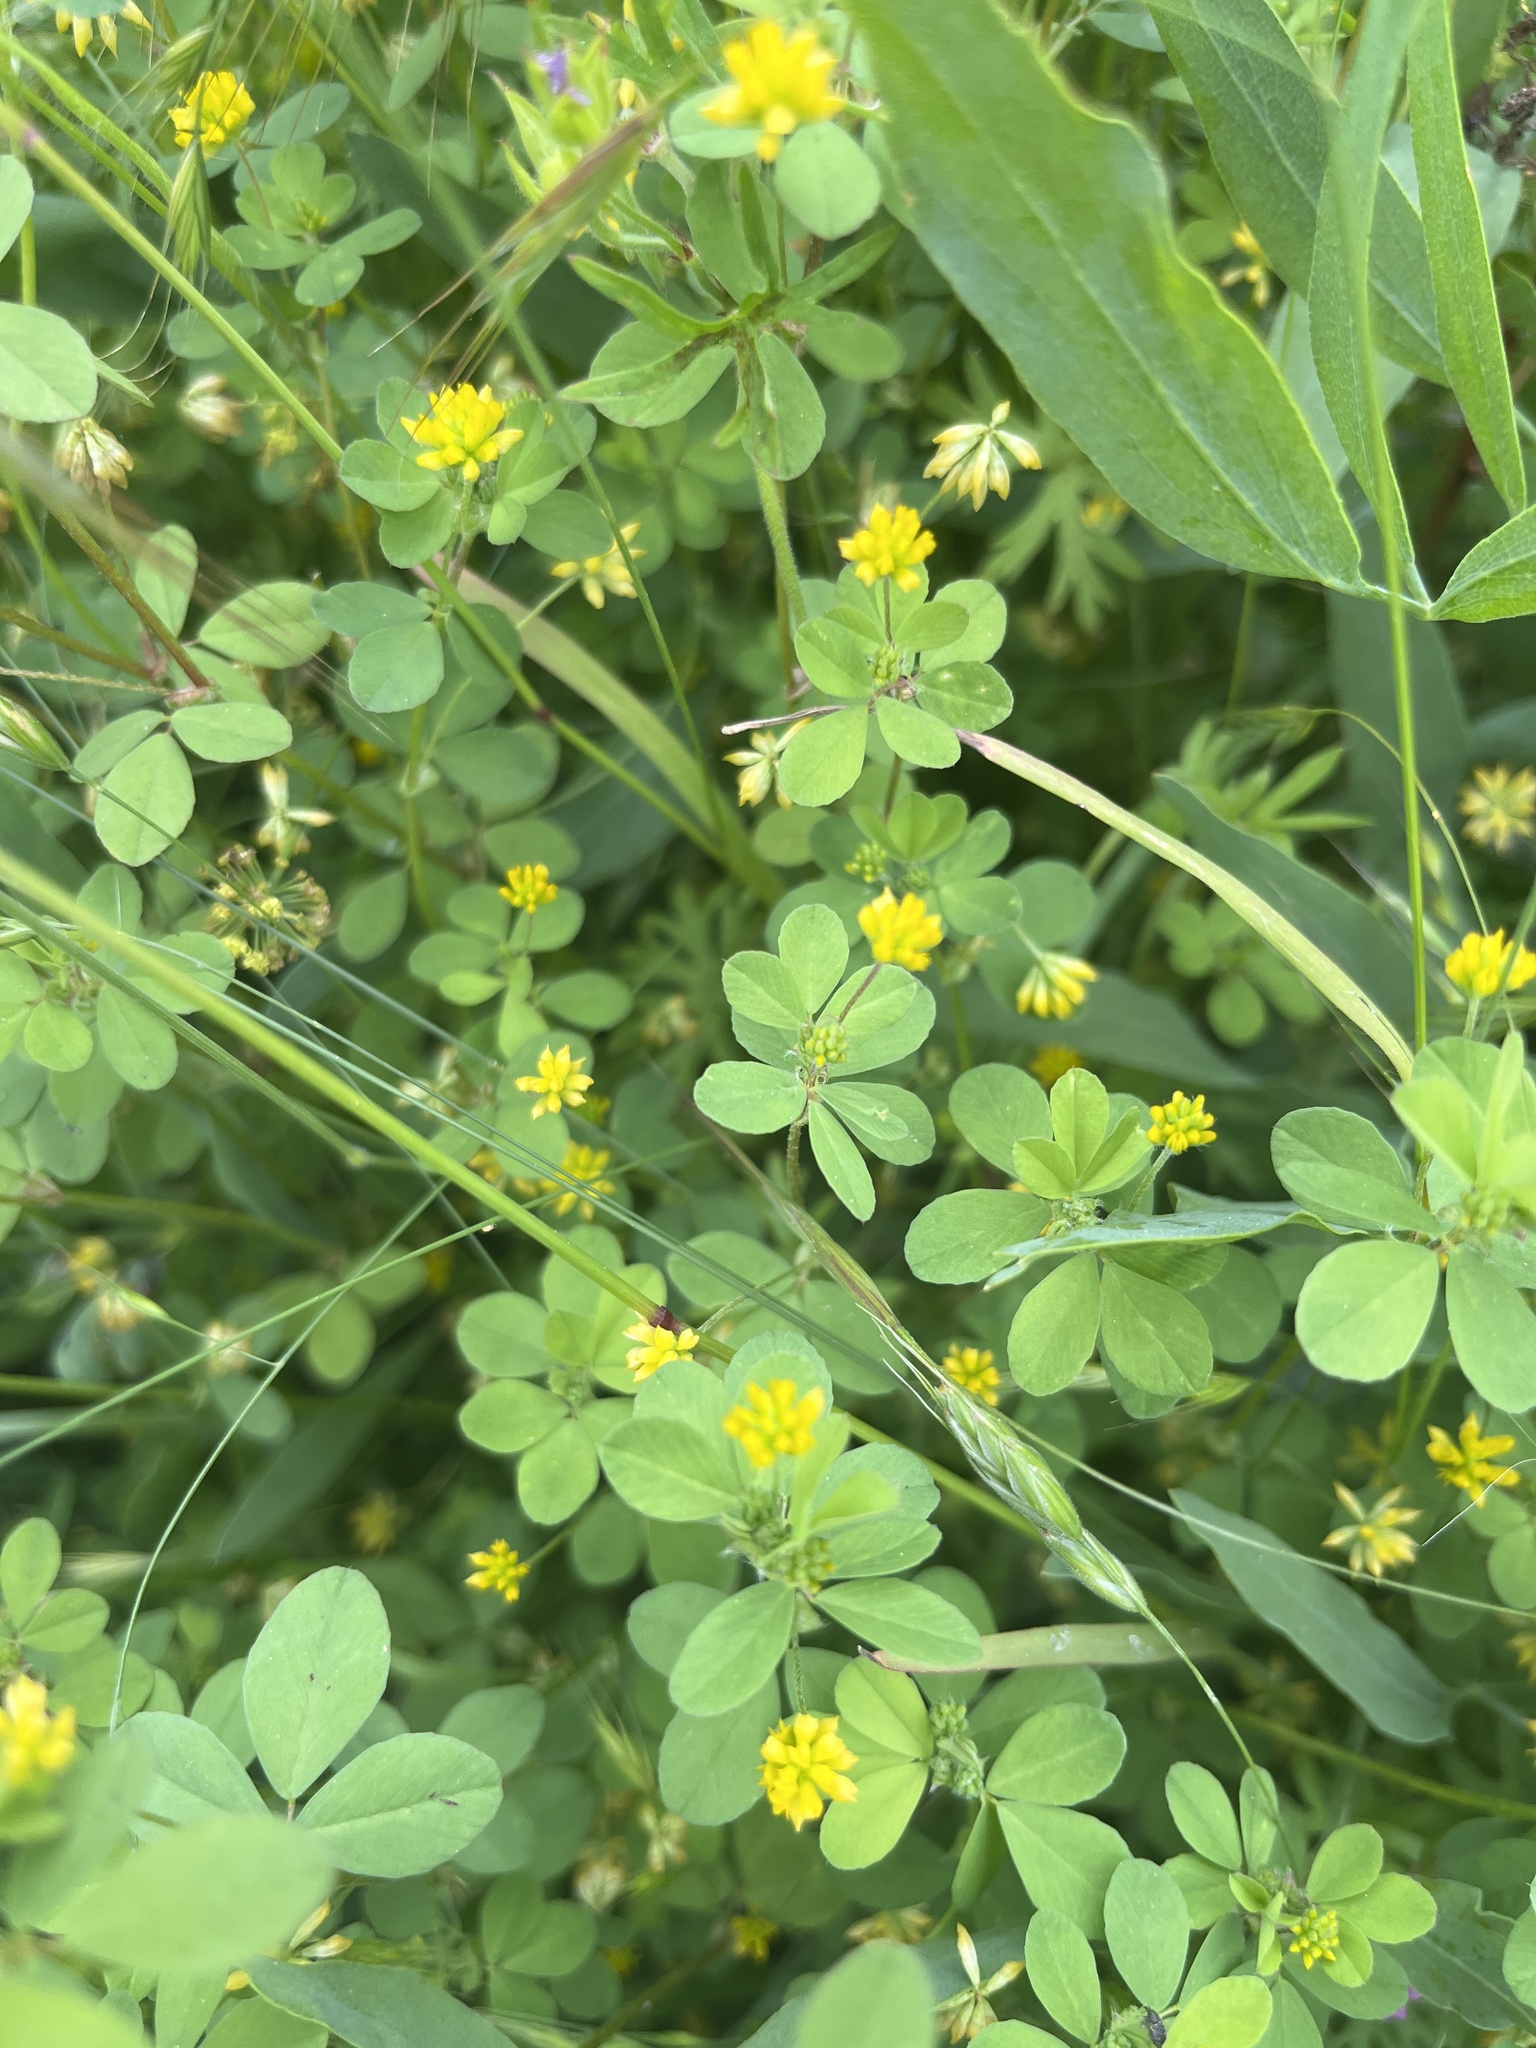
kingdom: Plantae
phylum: Tracheophyta
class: Magnoliopsida
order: Fabales
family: Fabaceae
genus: Trifolium
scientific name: Trifolium dubium
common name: Suckling clover
